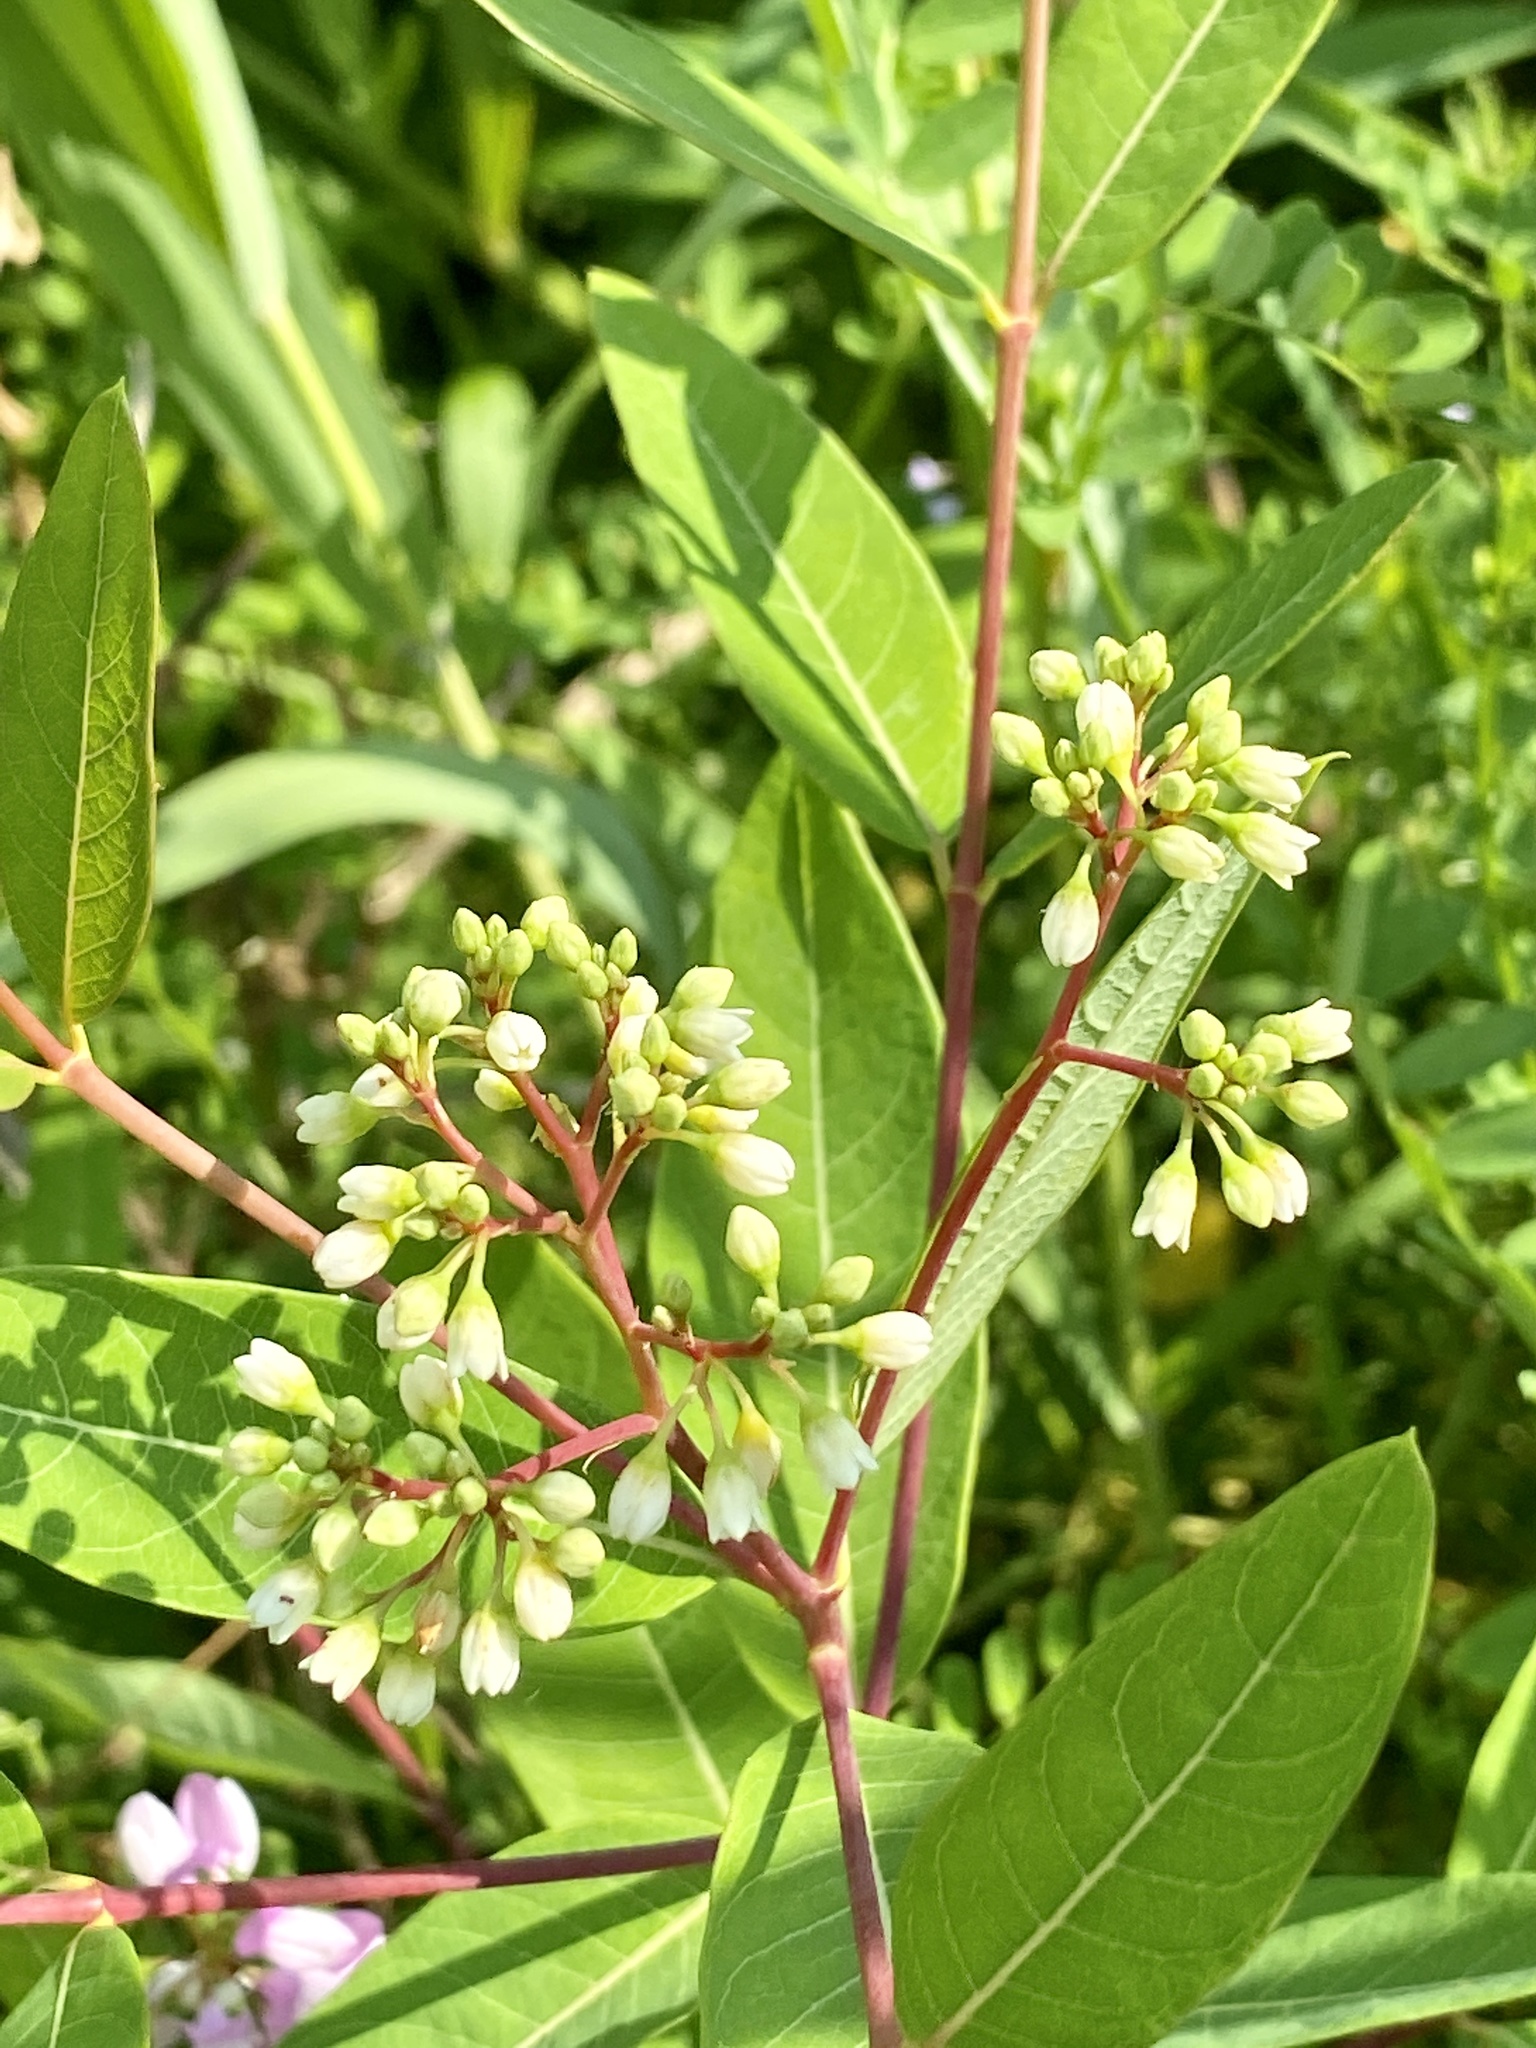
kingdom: Plantae
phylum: Tracheophyta
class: Magnoliopsida
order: Gentianales
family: Apocynaceae
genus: Apocynum
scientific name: Apocynum cannabinum
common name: Hemp dogbane
